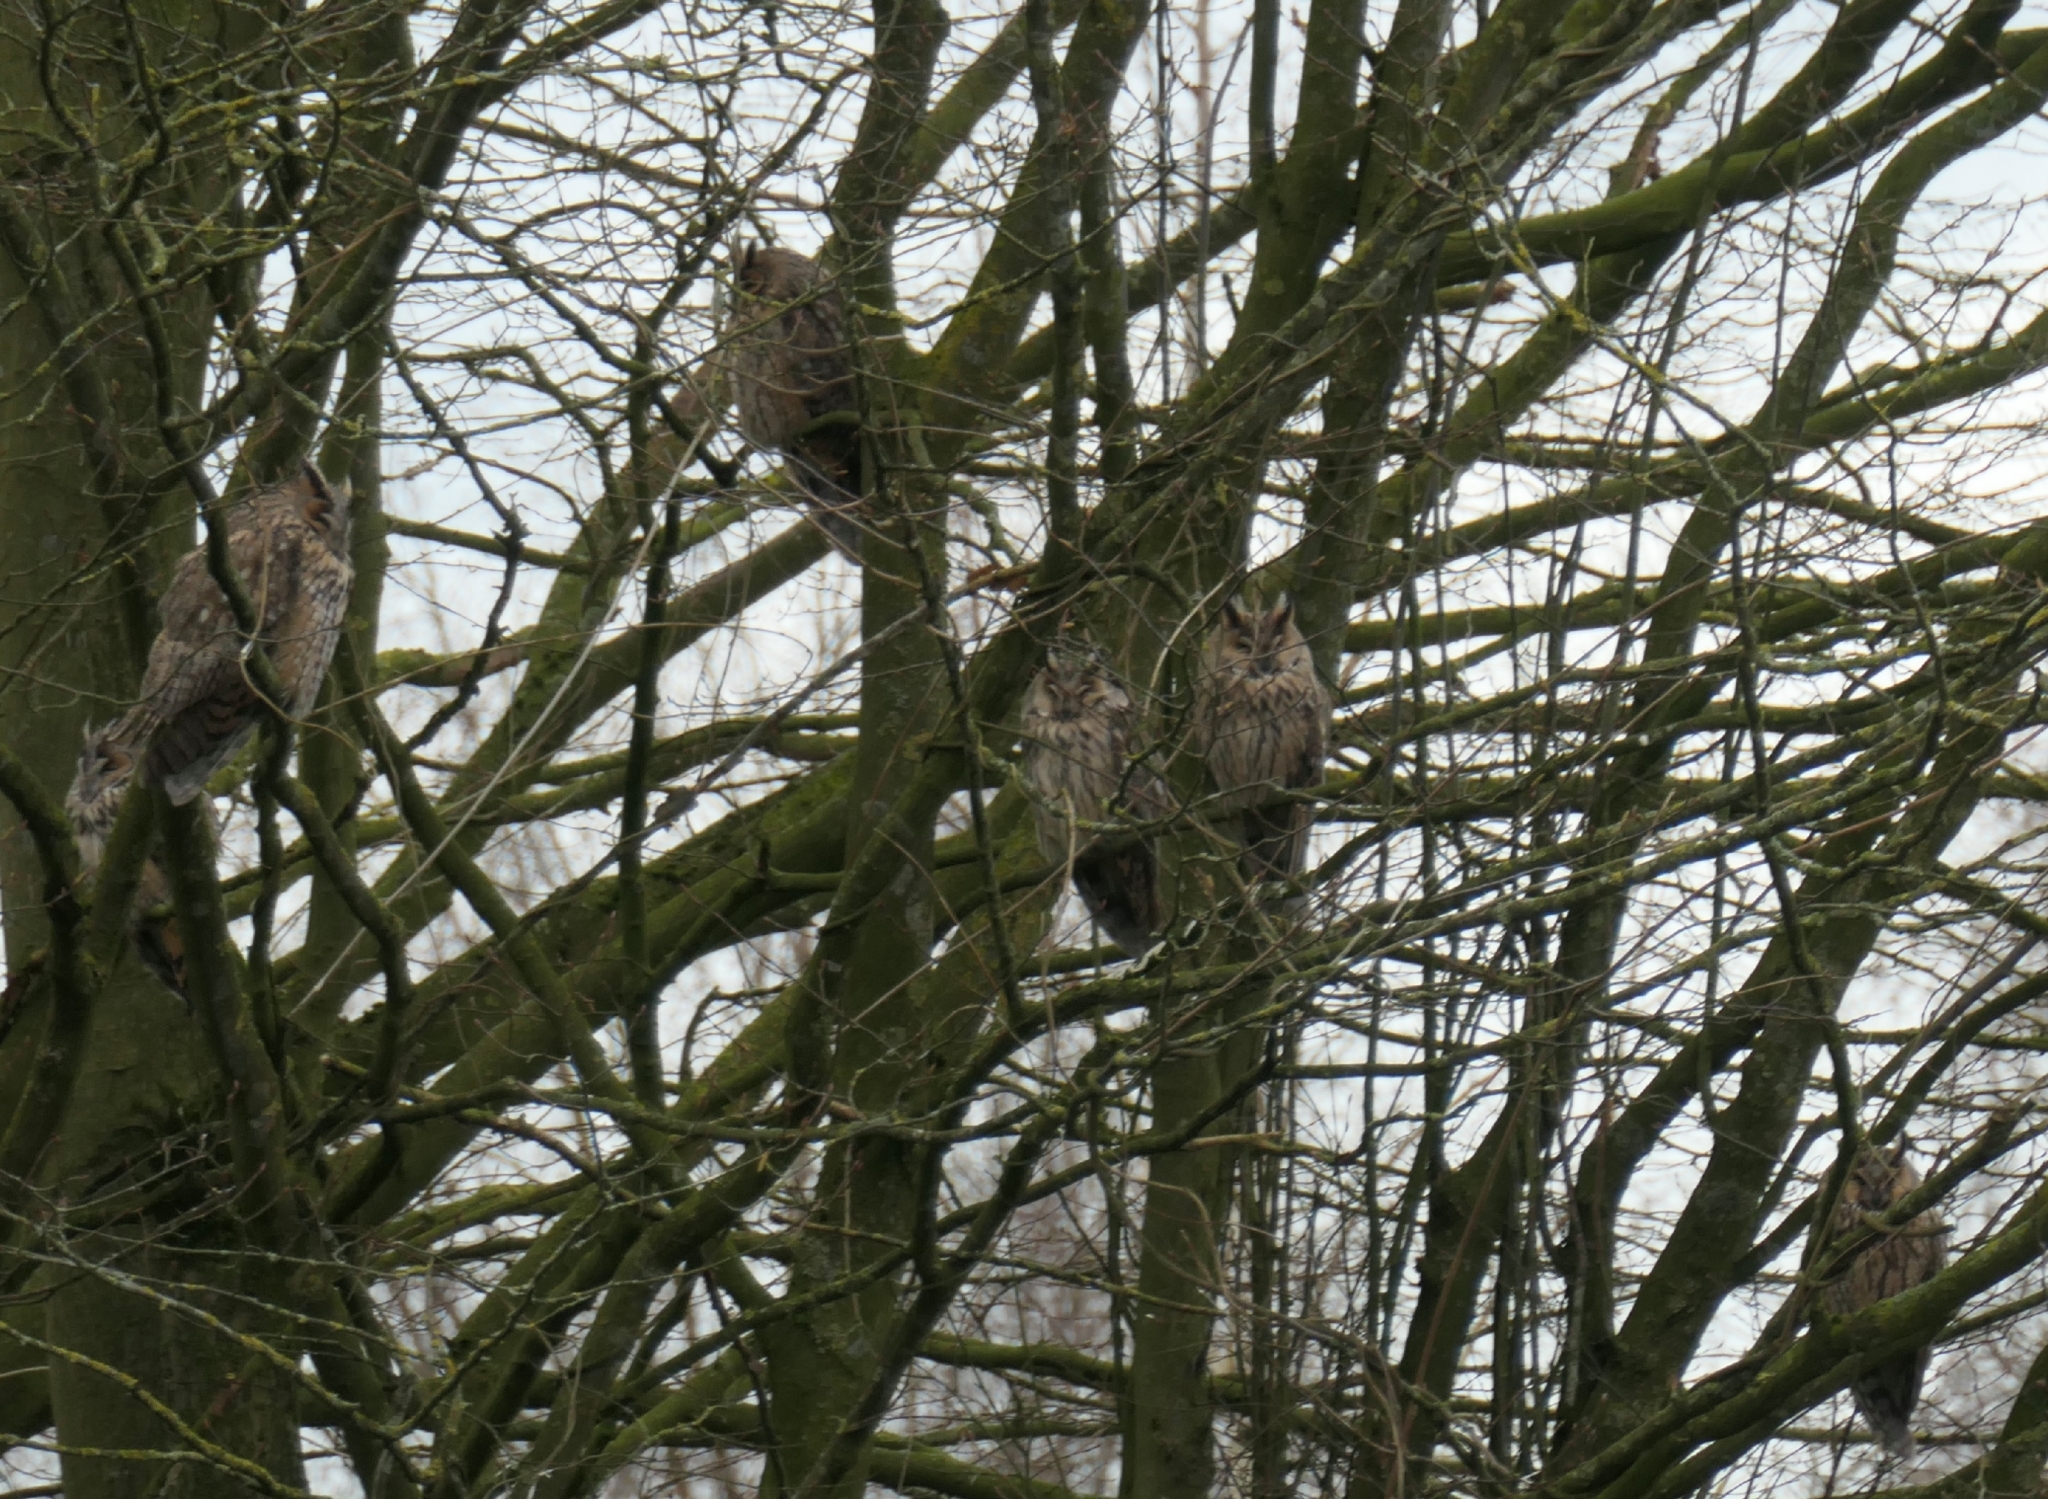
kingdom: Animalia
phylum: Chordata
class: Aves
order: Strigiformes
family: Strigidae
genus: Asio
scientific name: Asio otus
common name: Long-eared owl
